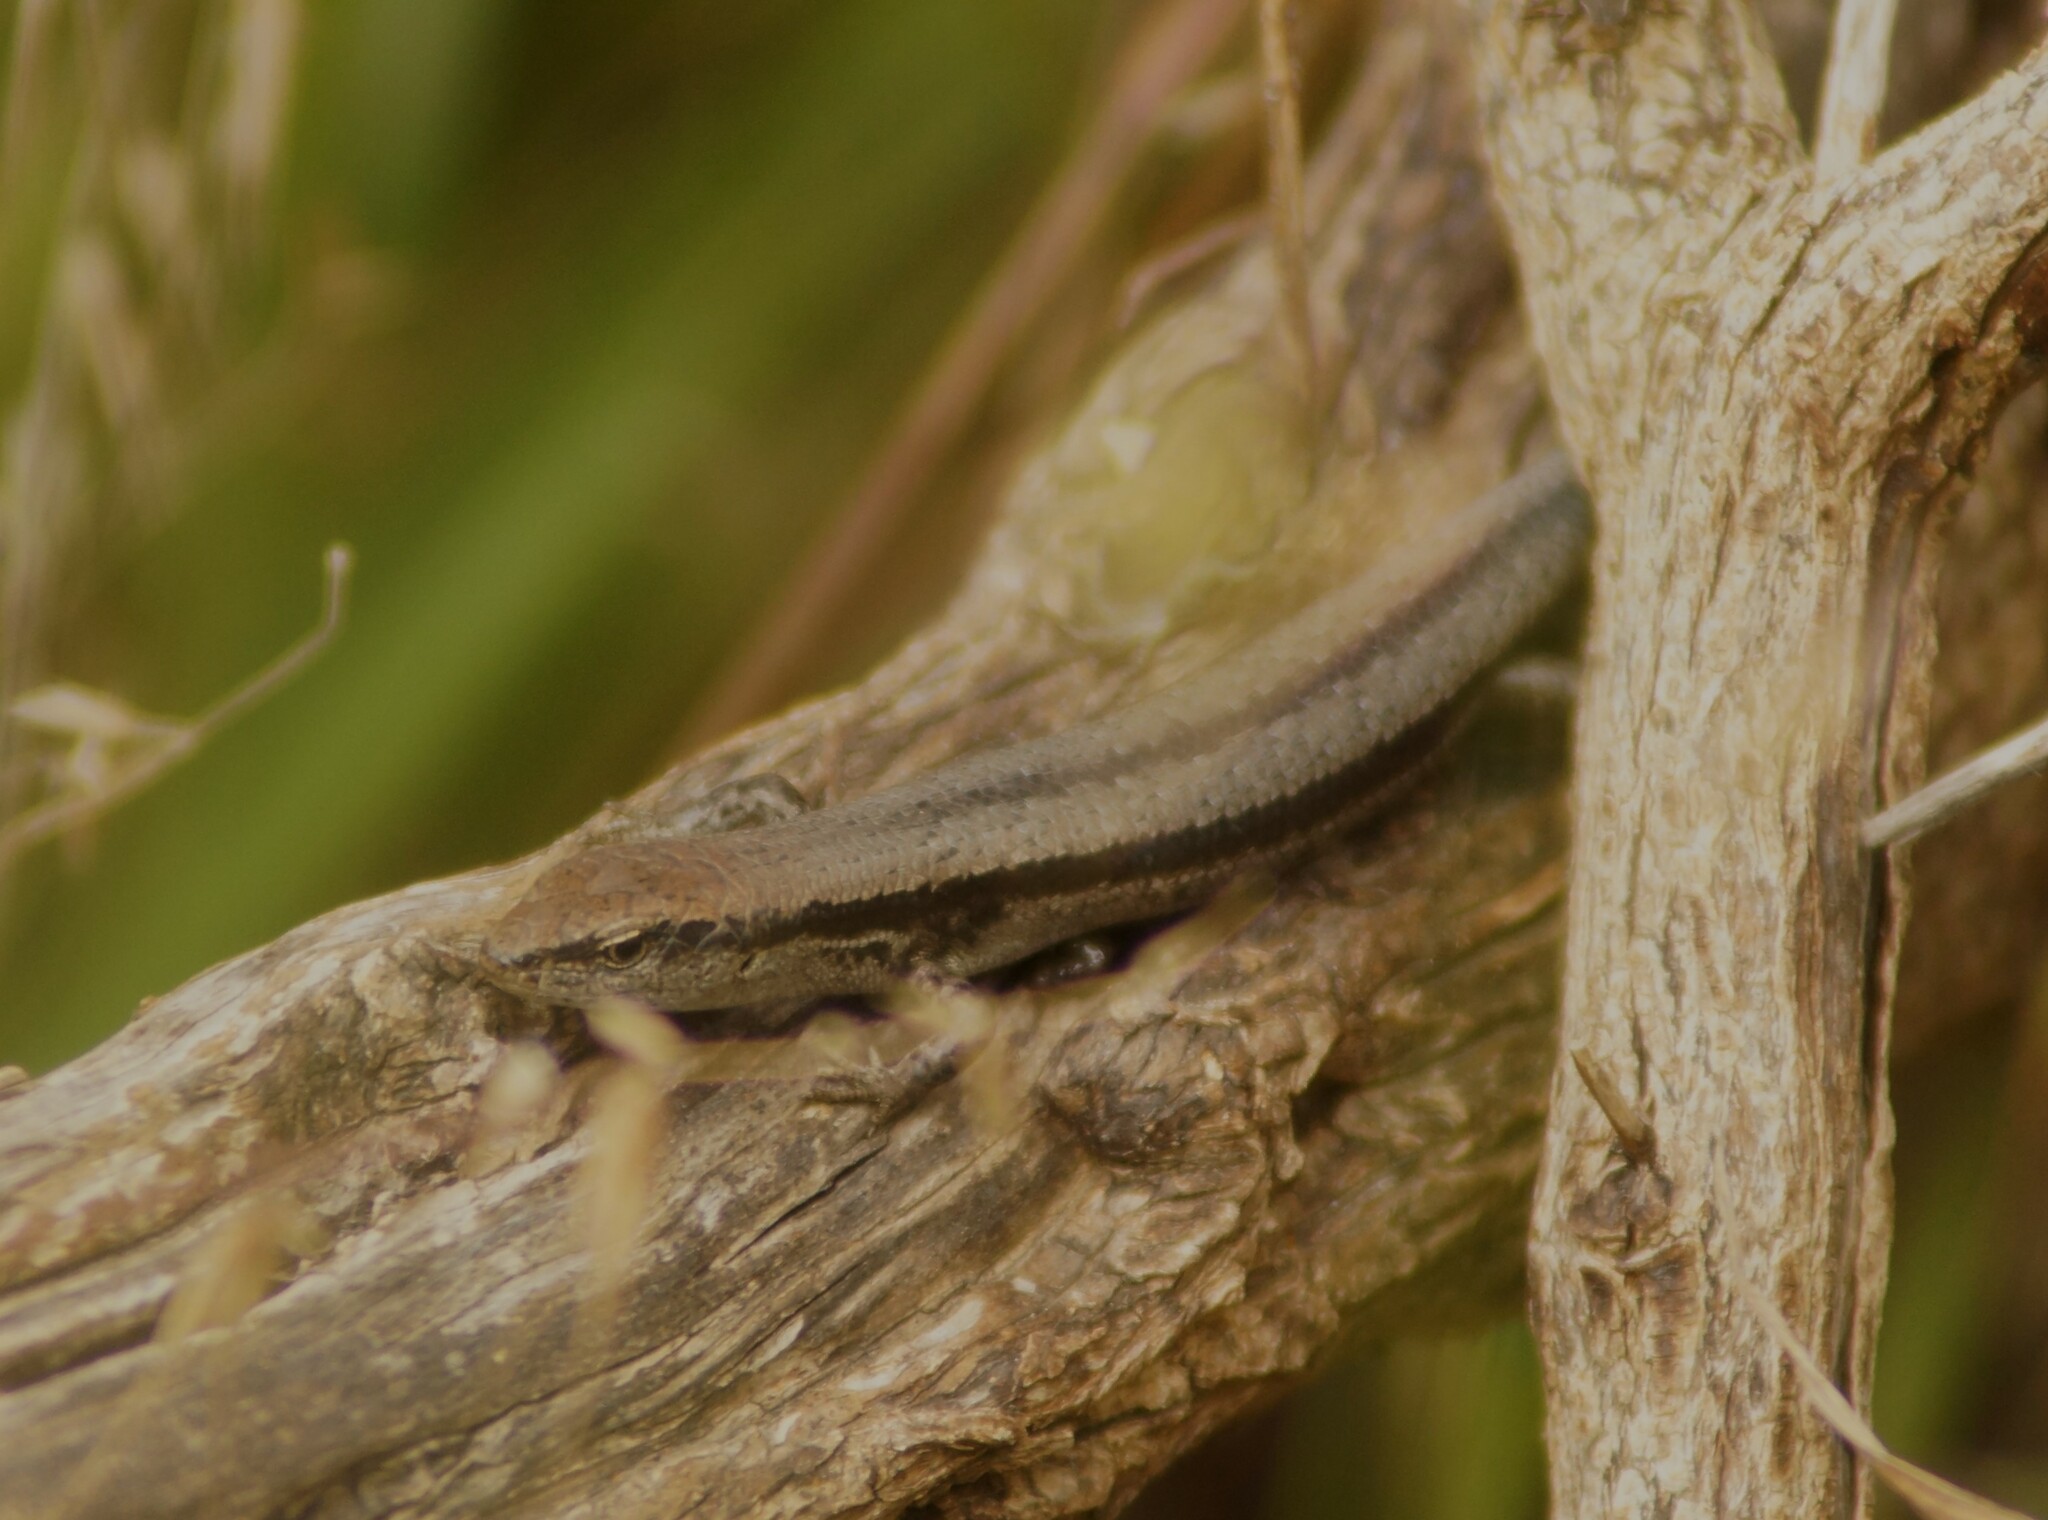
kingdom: Animalia
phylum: Chordata
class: Squamata
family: Scincidae
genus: Lampropholis
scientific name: Lampropholis guichenoti
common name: Garden skink
